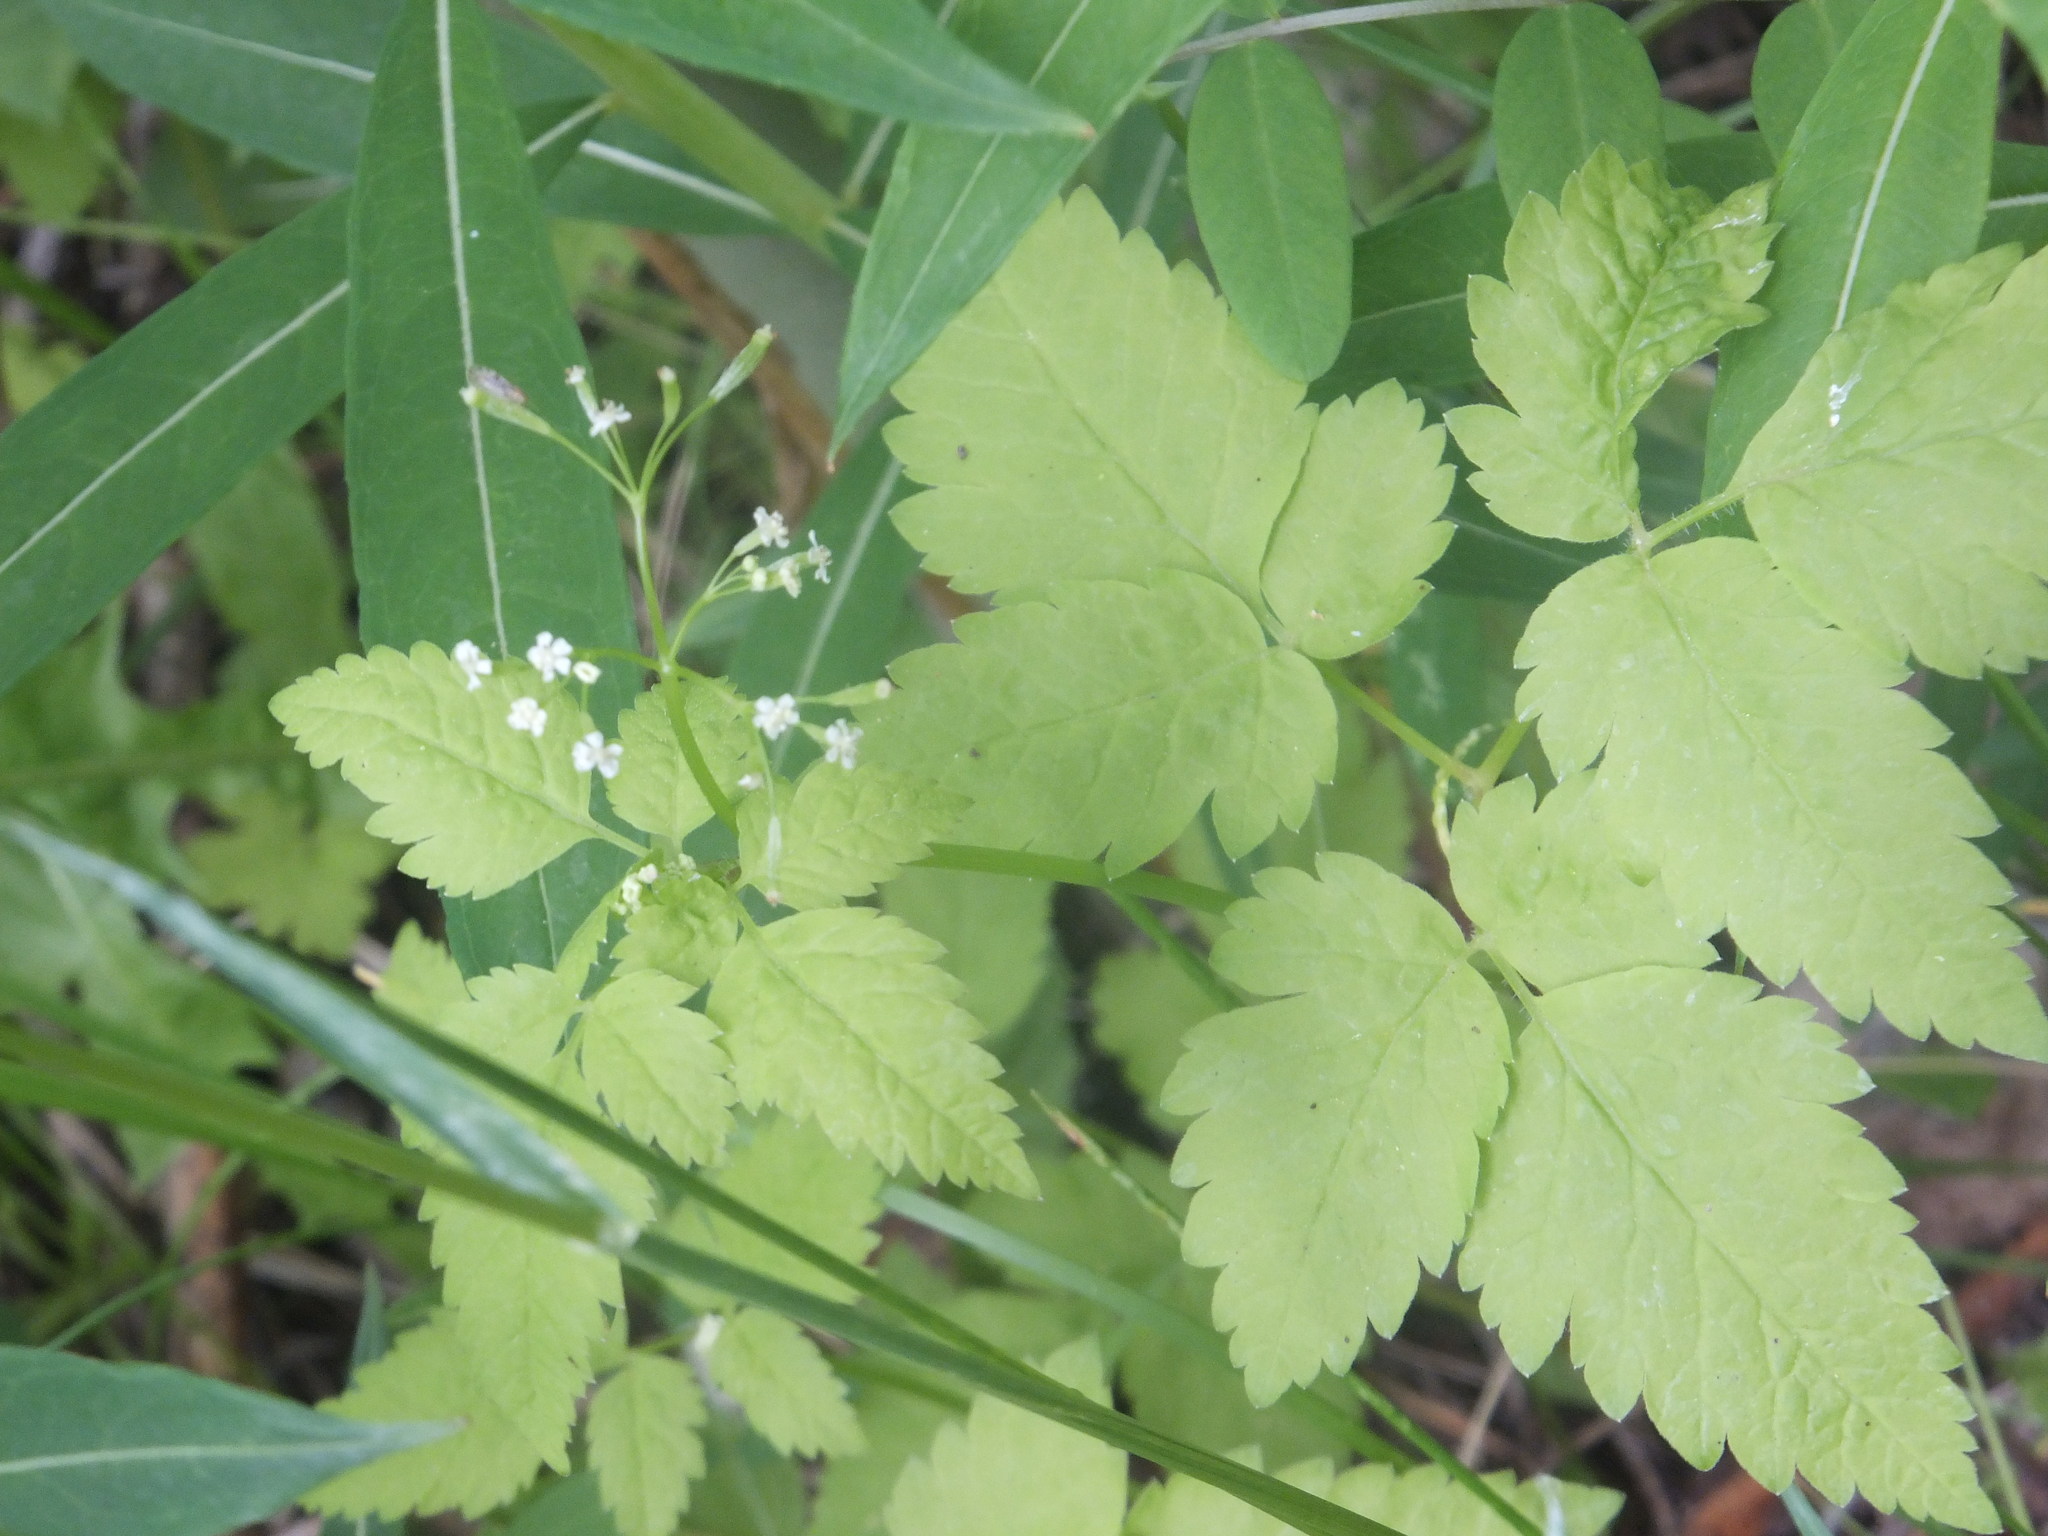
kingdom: Plantae
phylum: Tracheophyta
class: Magnoliopsida
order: Apiales
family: Apiaceae
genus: Osmorhiza
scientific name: Osmorhiza berteroi
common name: Mountain sweet cicely
